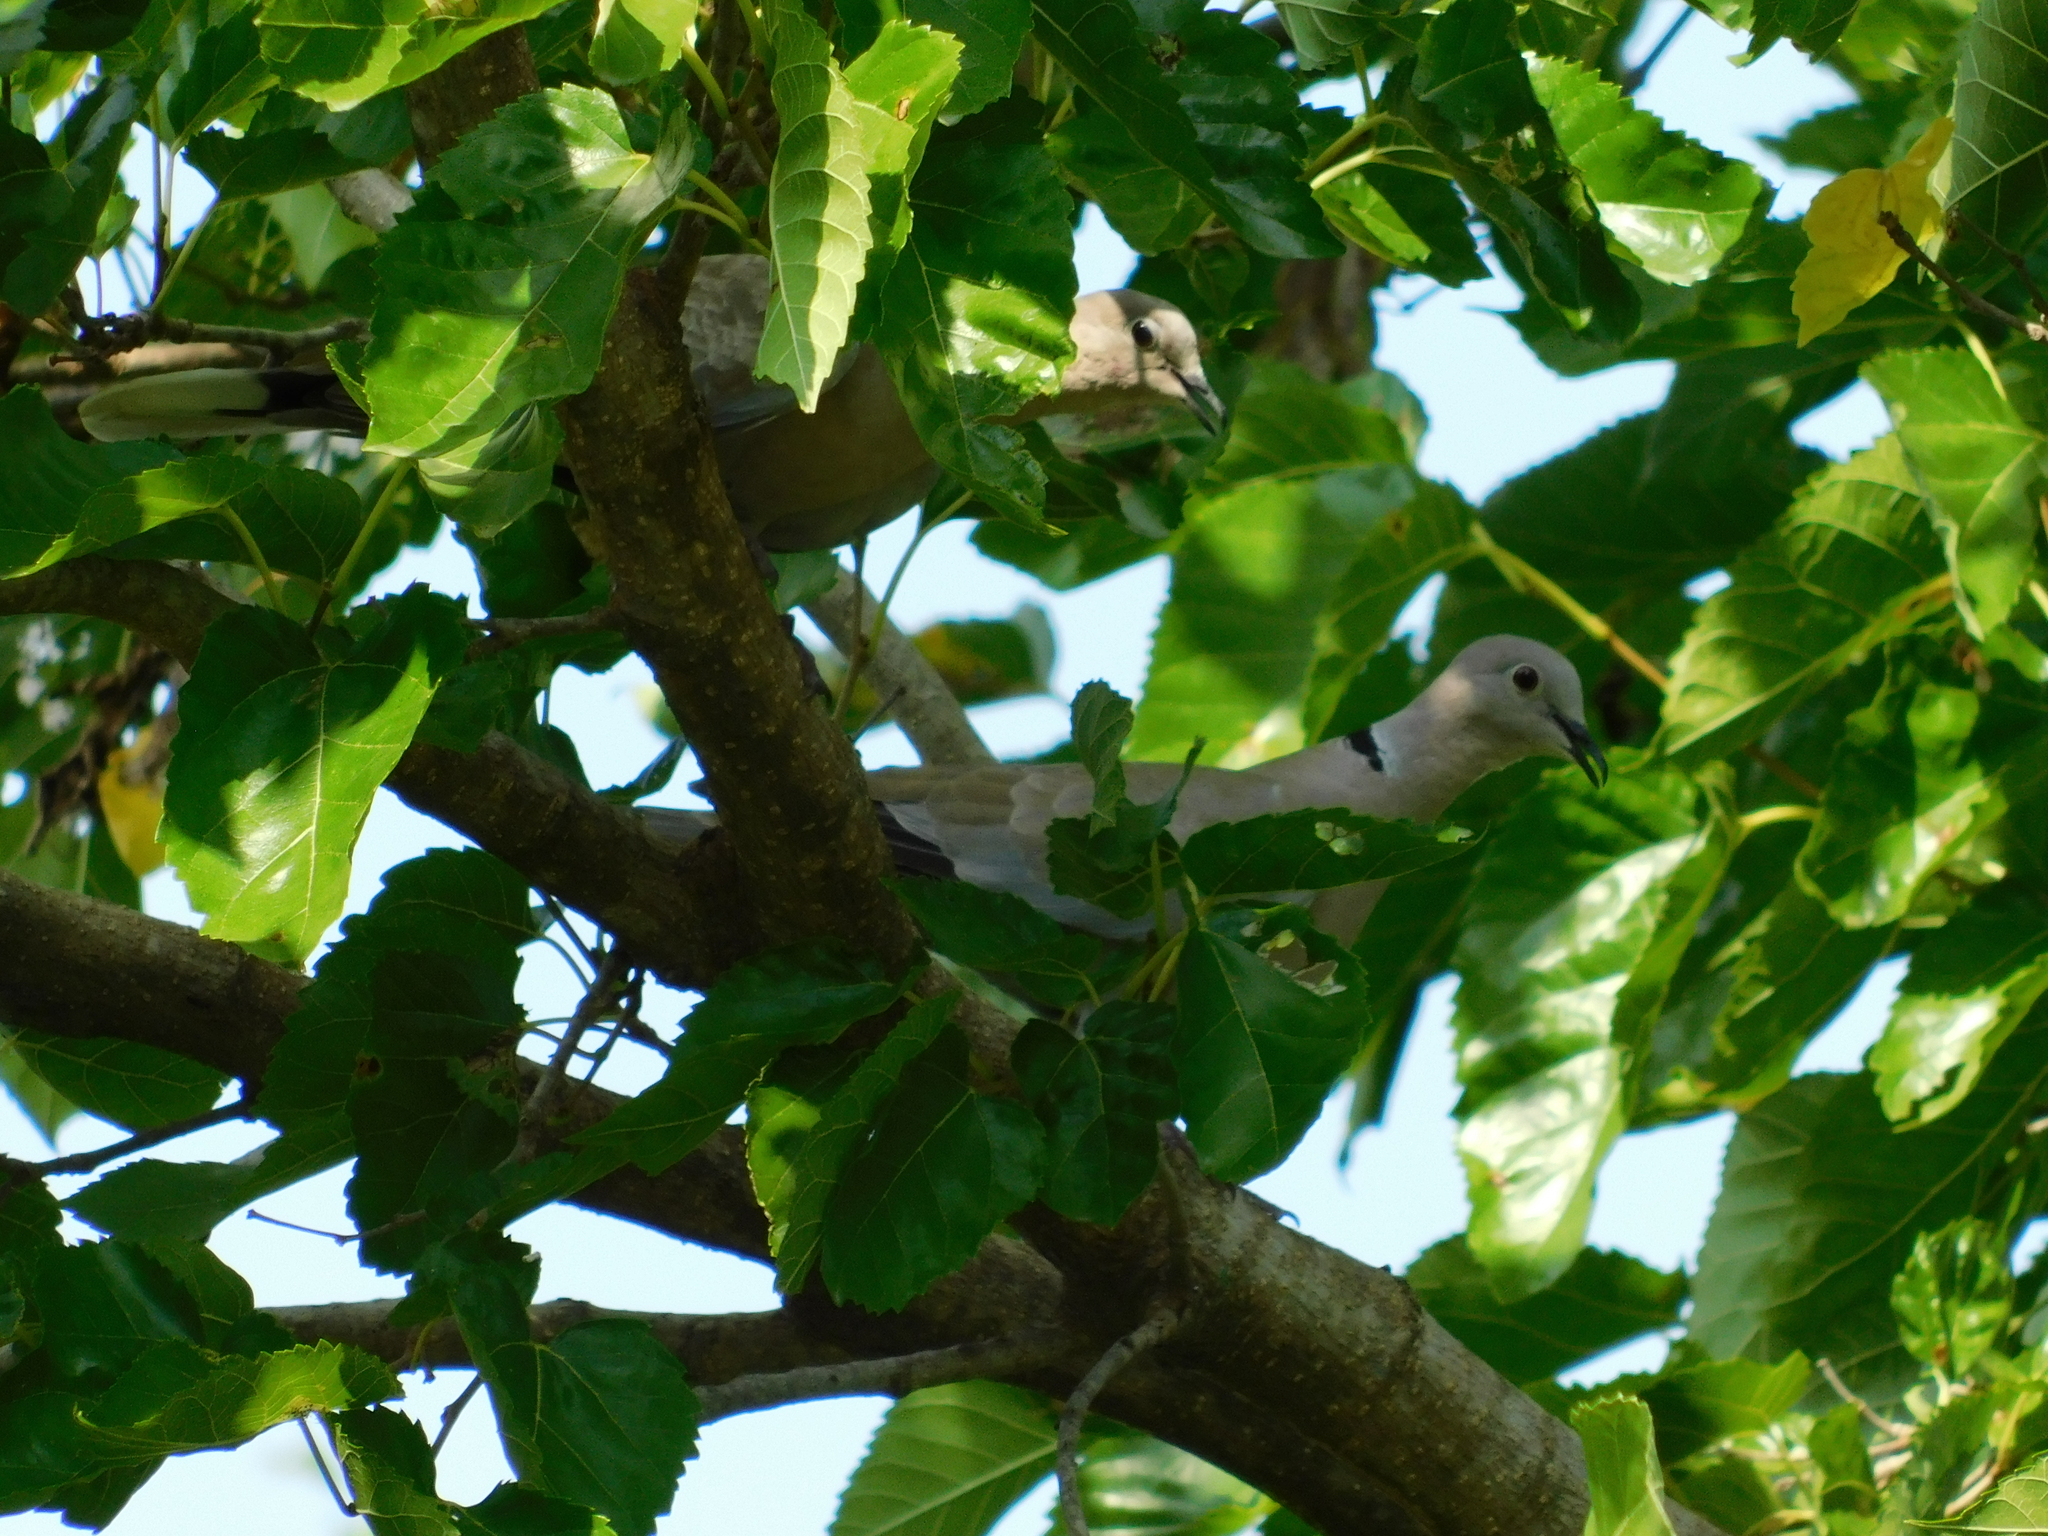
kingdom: Animalia
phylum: Chordata
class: Aves
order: Columbiformes
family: Columbidae
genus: Streptopelia
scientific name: Streptopelia decaocto
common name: Eurasian collared dove
